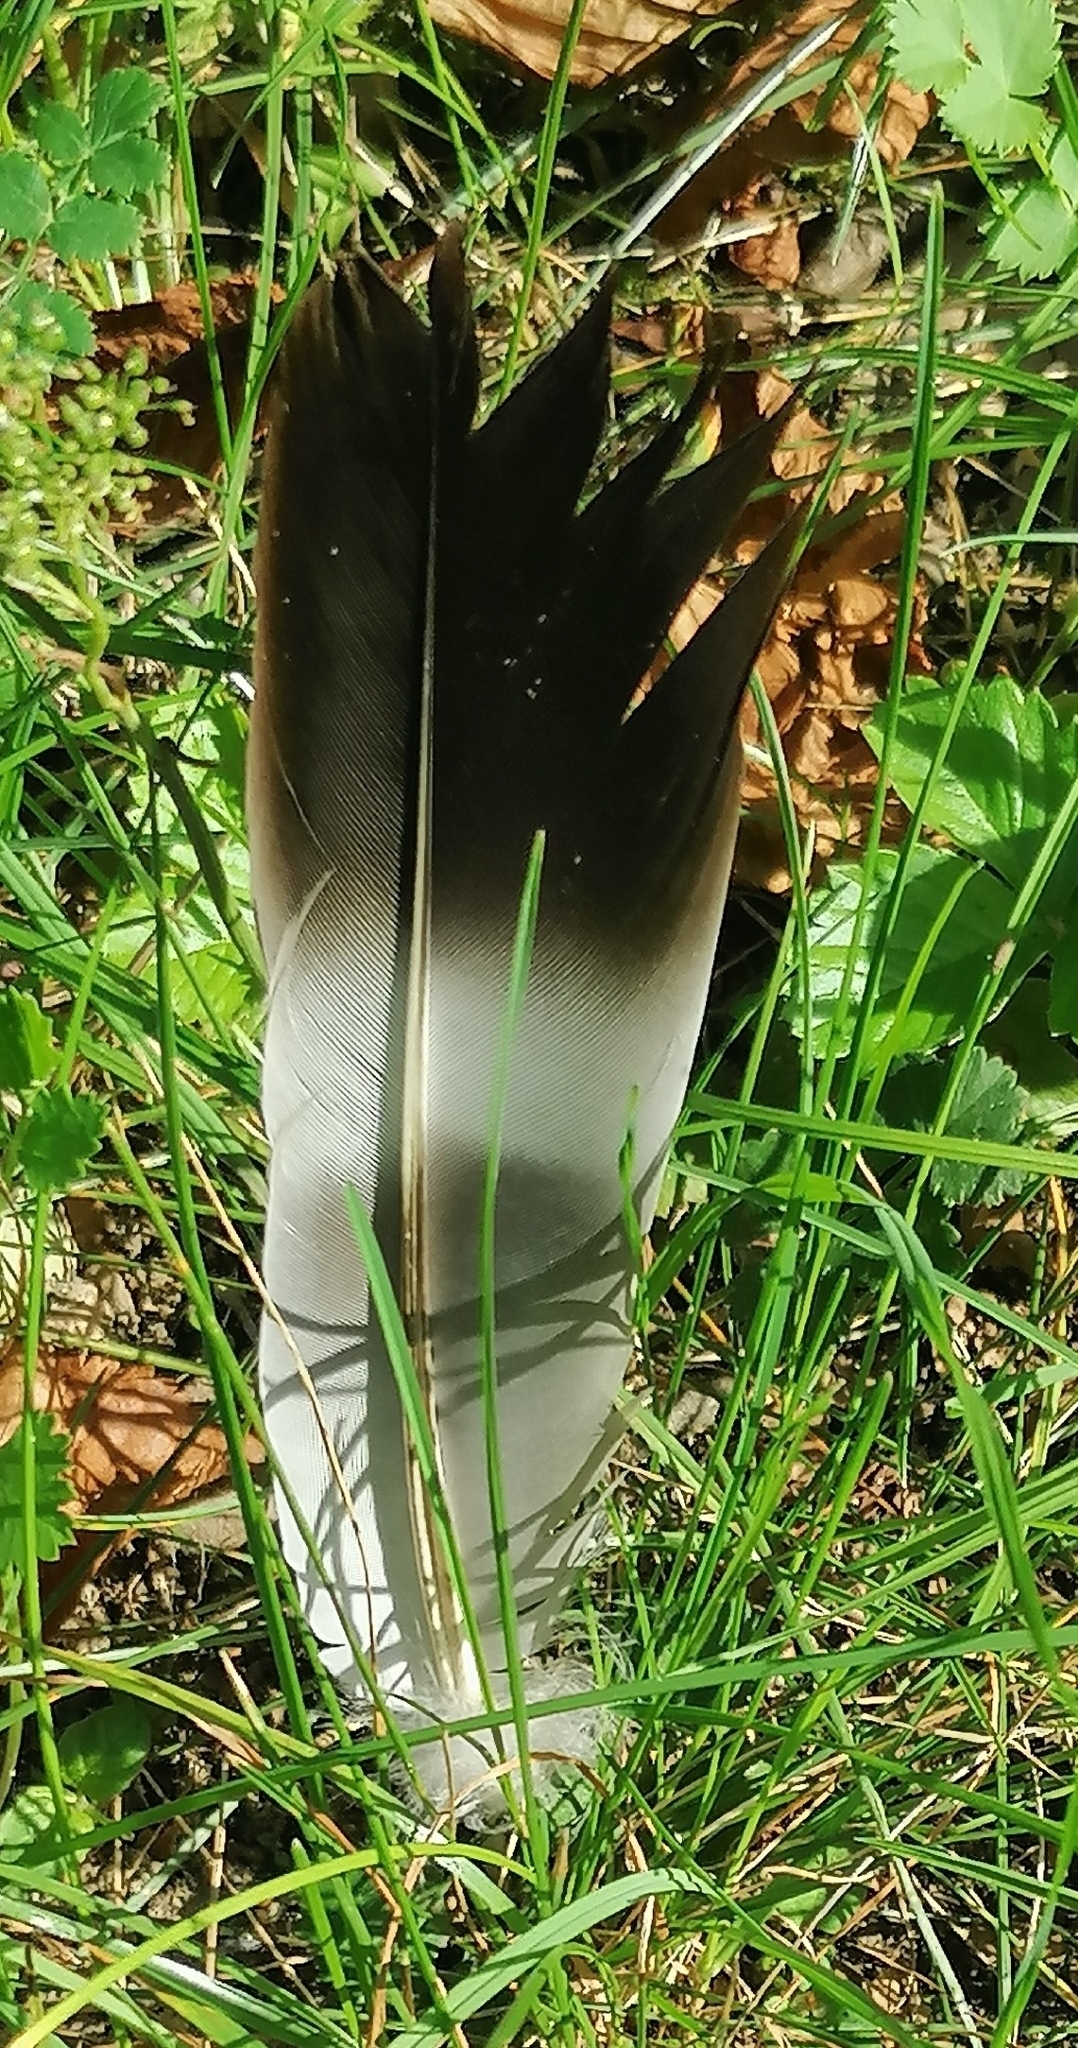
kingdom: Animalia
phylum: Chordata
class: Aves
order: Columbiformes
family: Columbidae
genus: Columba
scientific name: Columba palumbus
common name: Common wood pigeon
